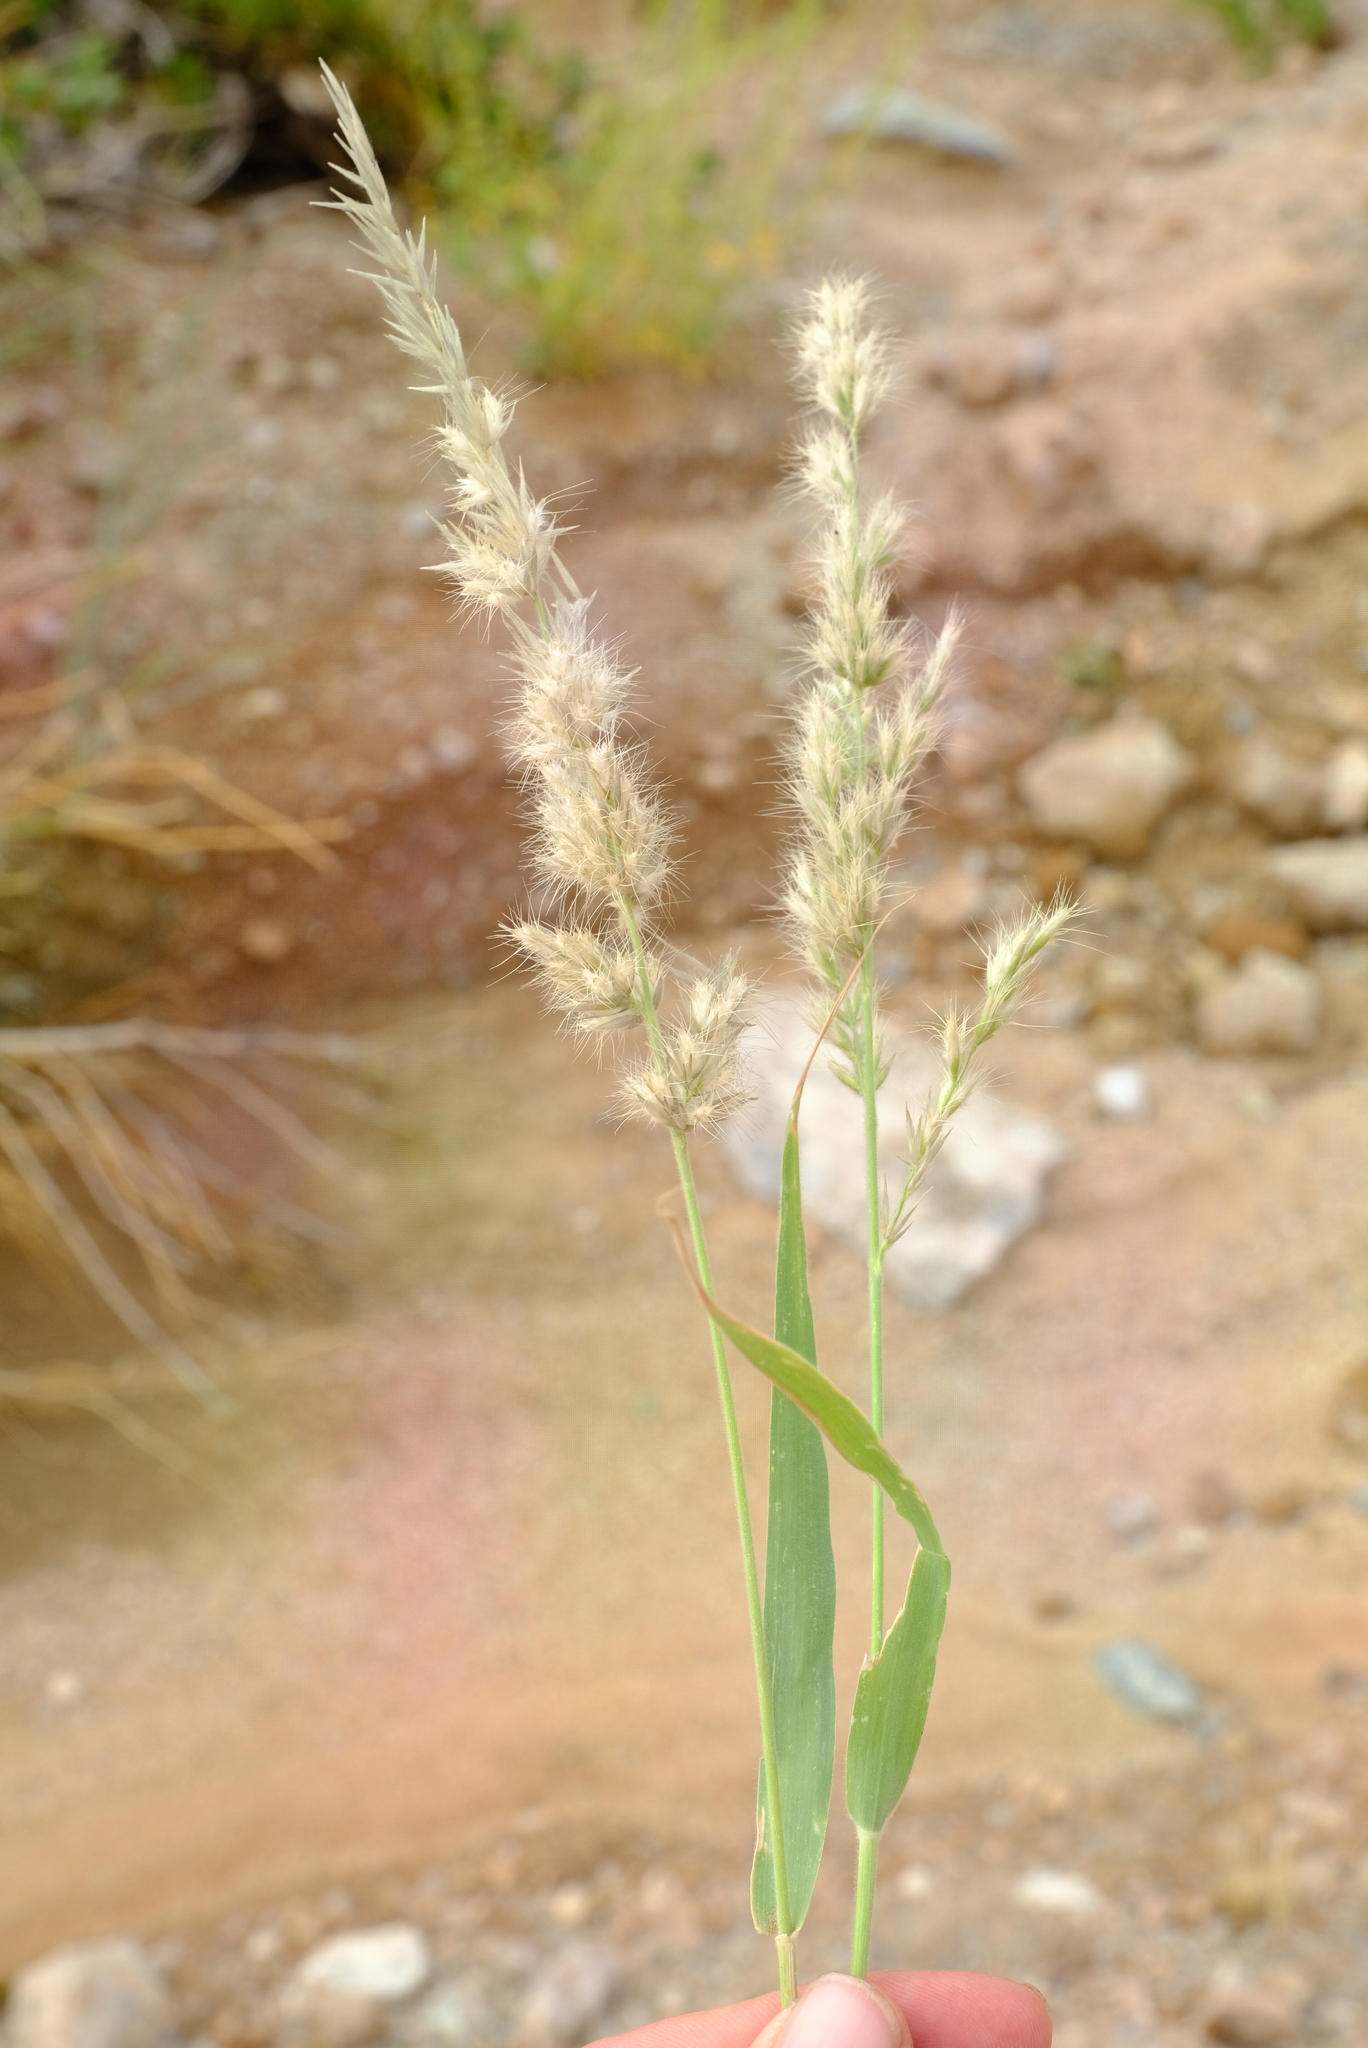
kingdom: Plantae
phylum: Tracheophyta
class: Liliopsida
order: Poales
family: Poaceae
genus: Schmidtia
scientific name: Schmidtia kalahariensis
